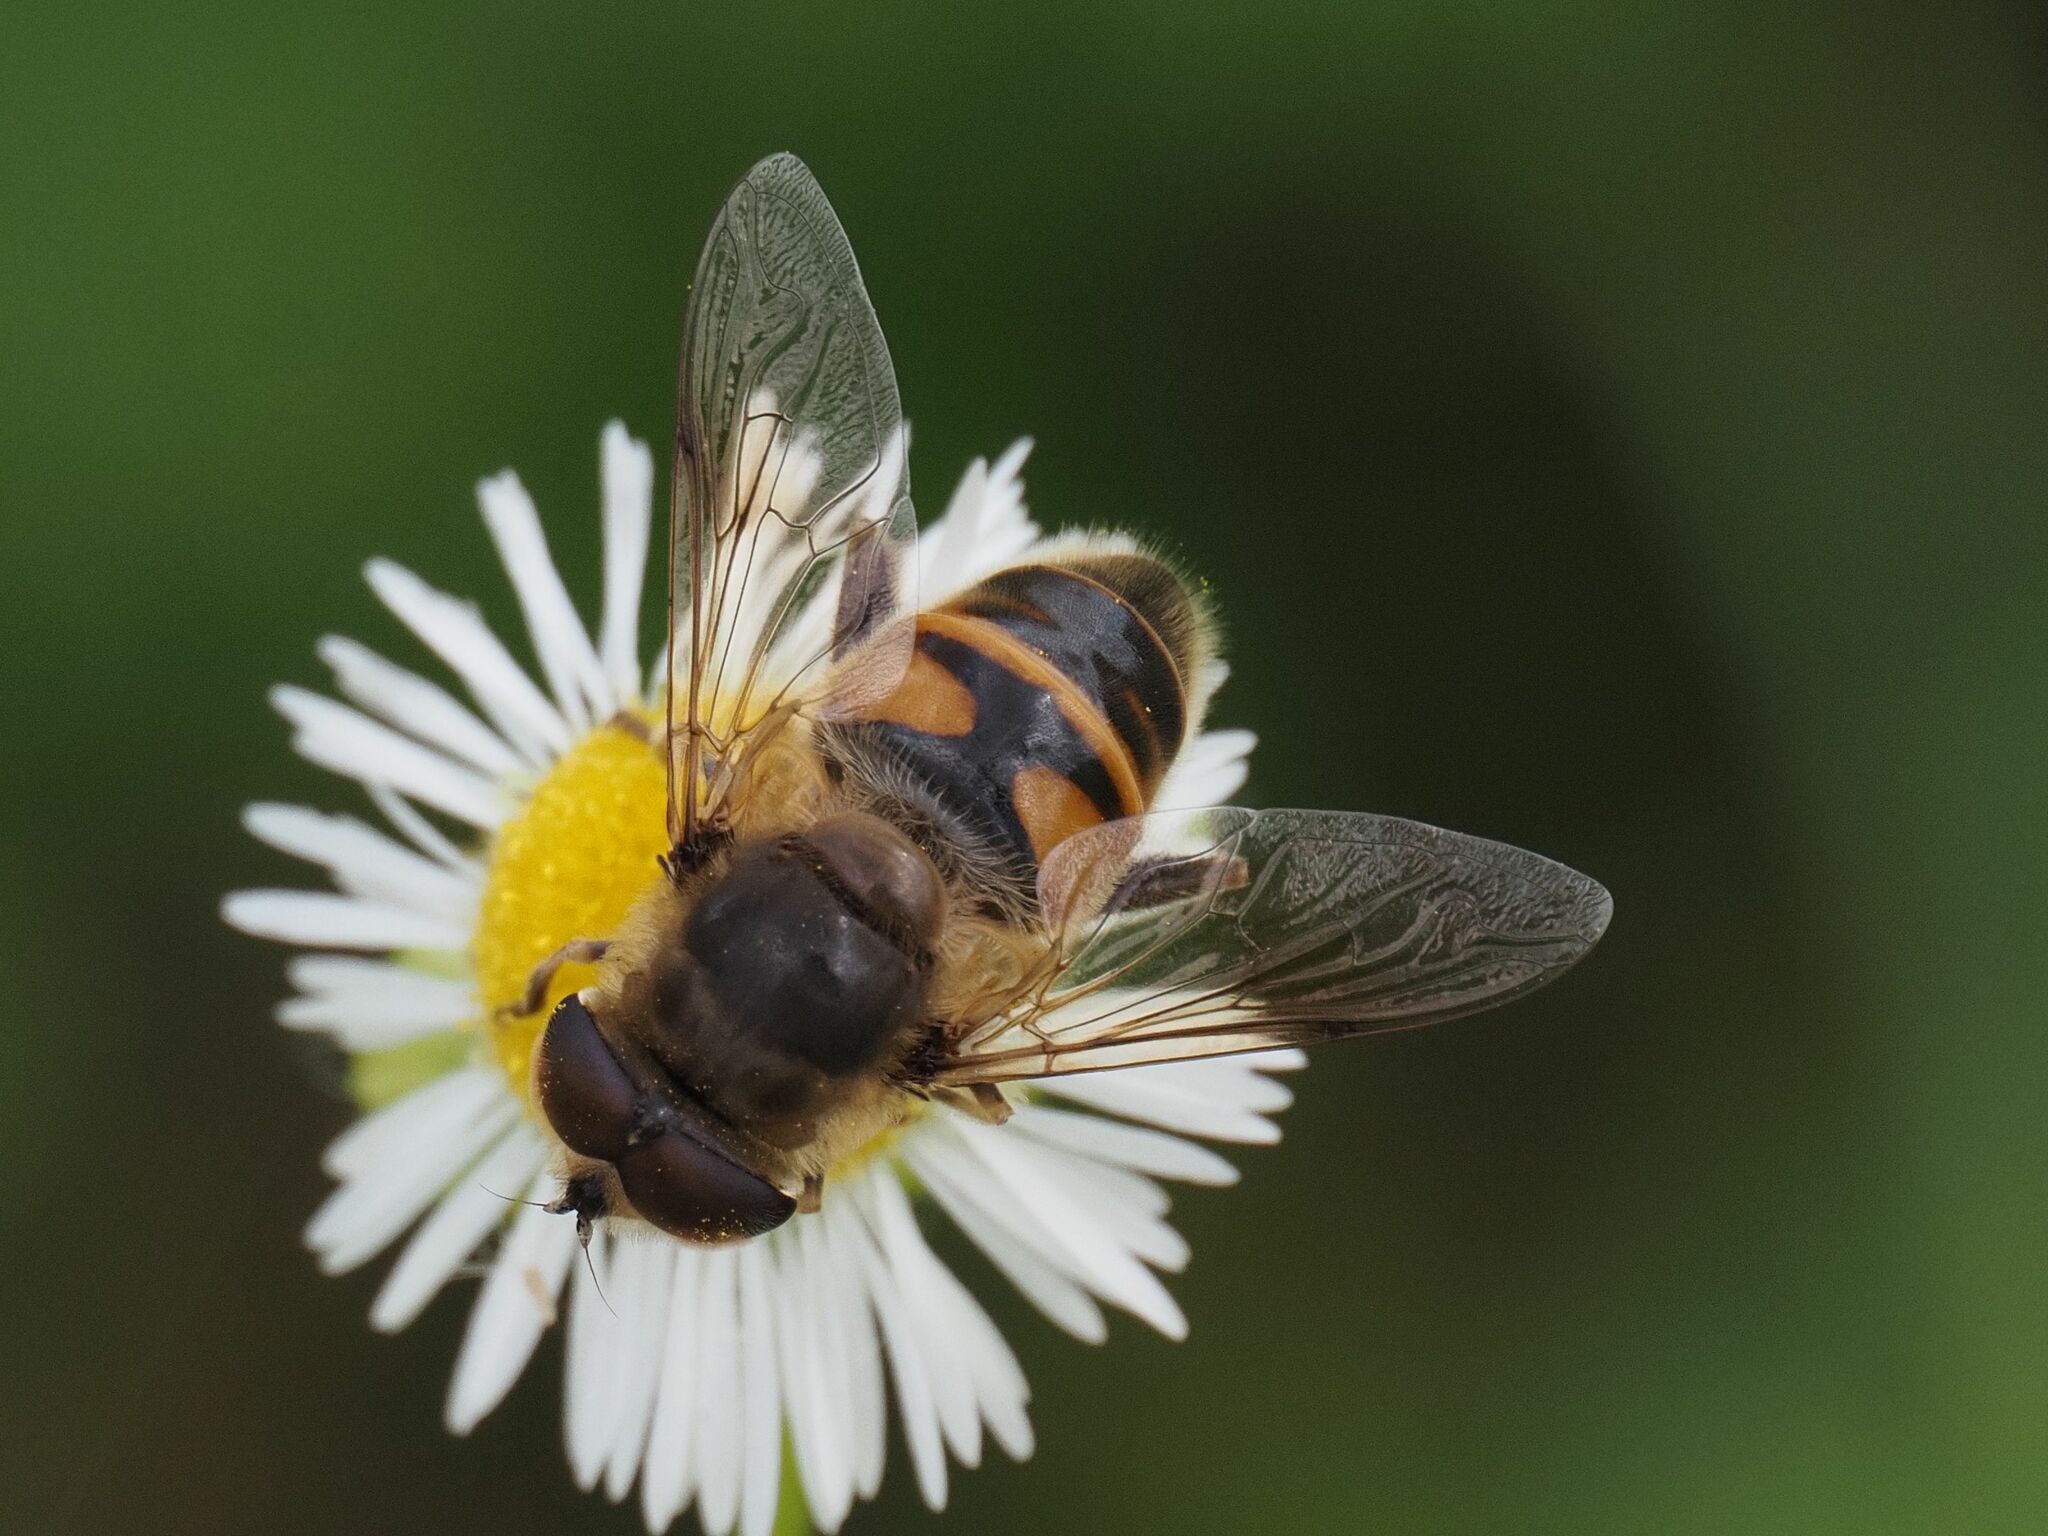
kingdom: Animalia
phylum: Arthropoda
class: Insecta
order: Diptera
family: Syrphidae
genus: Eristalis
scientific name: Eristalis tenax
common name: Drone fly
